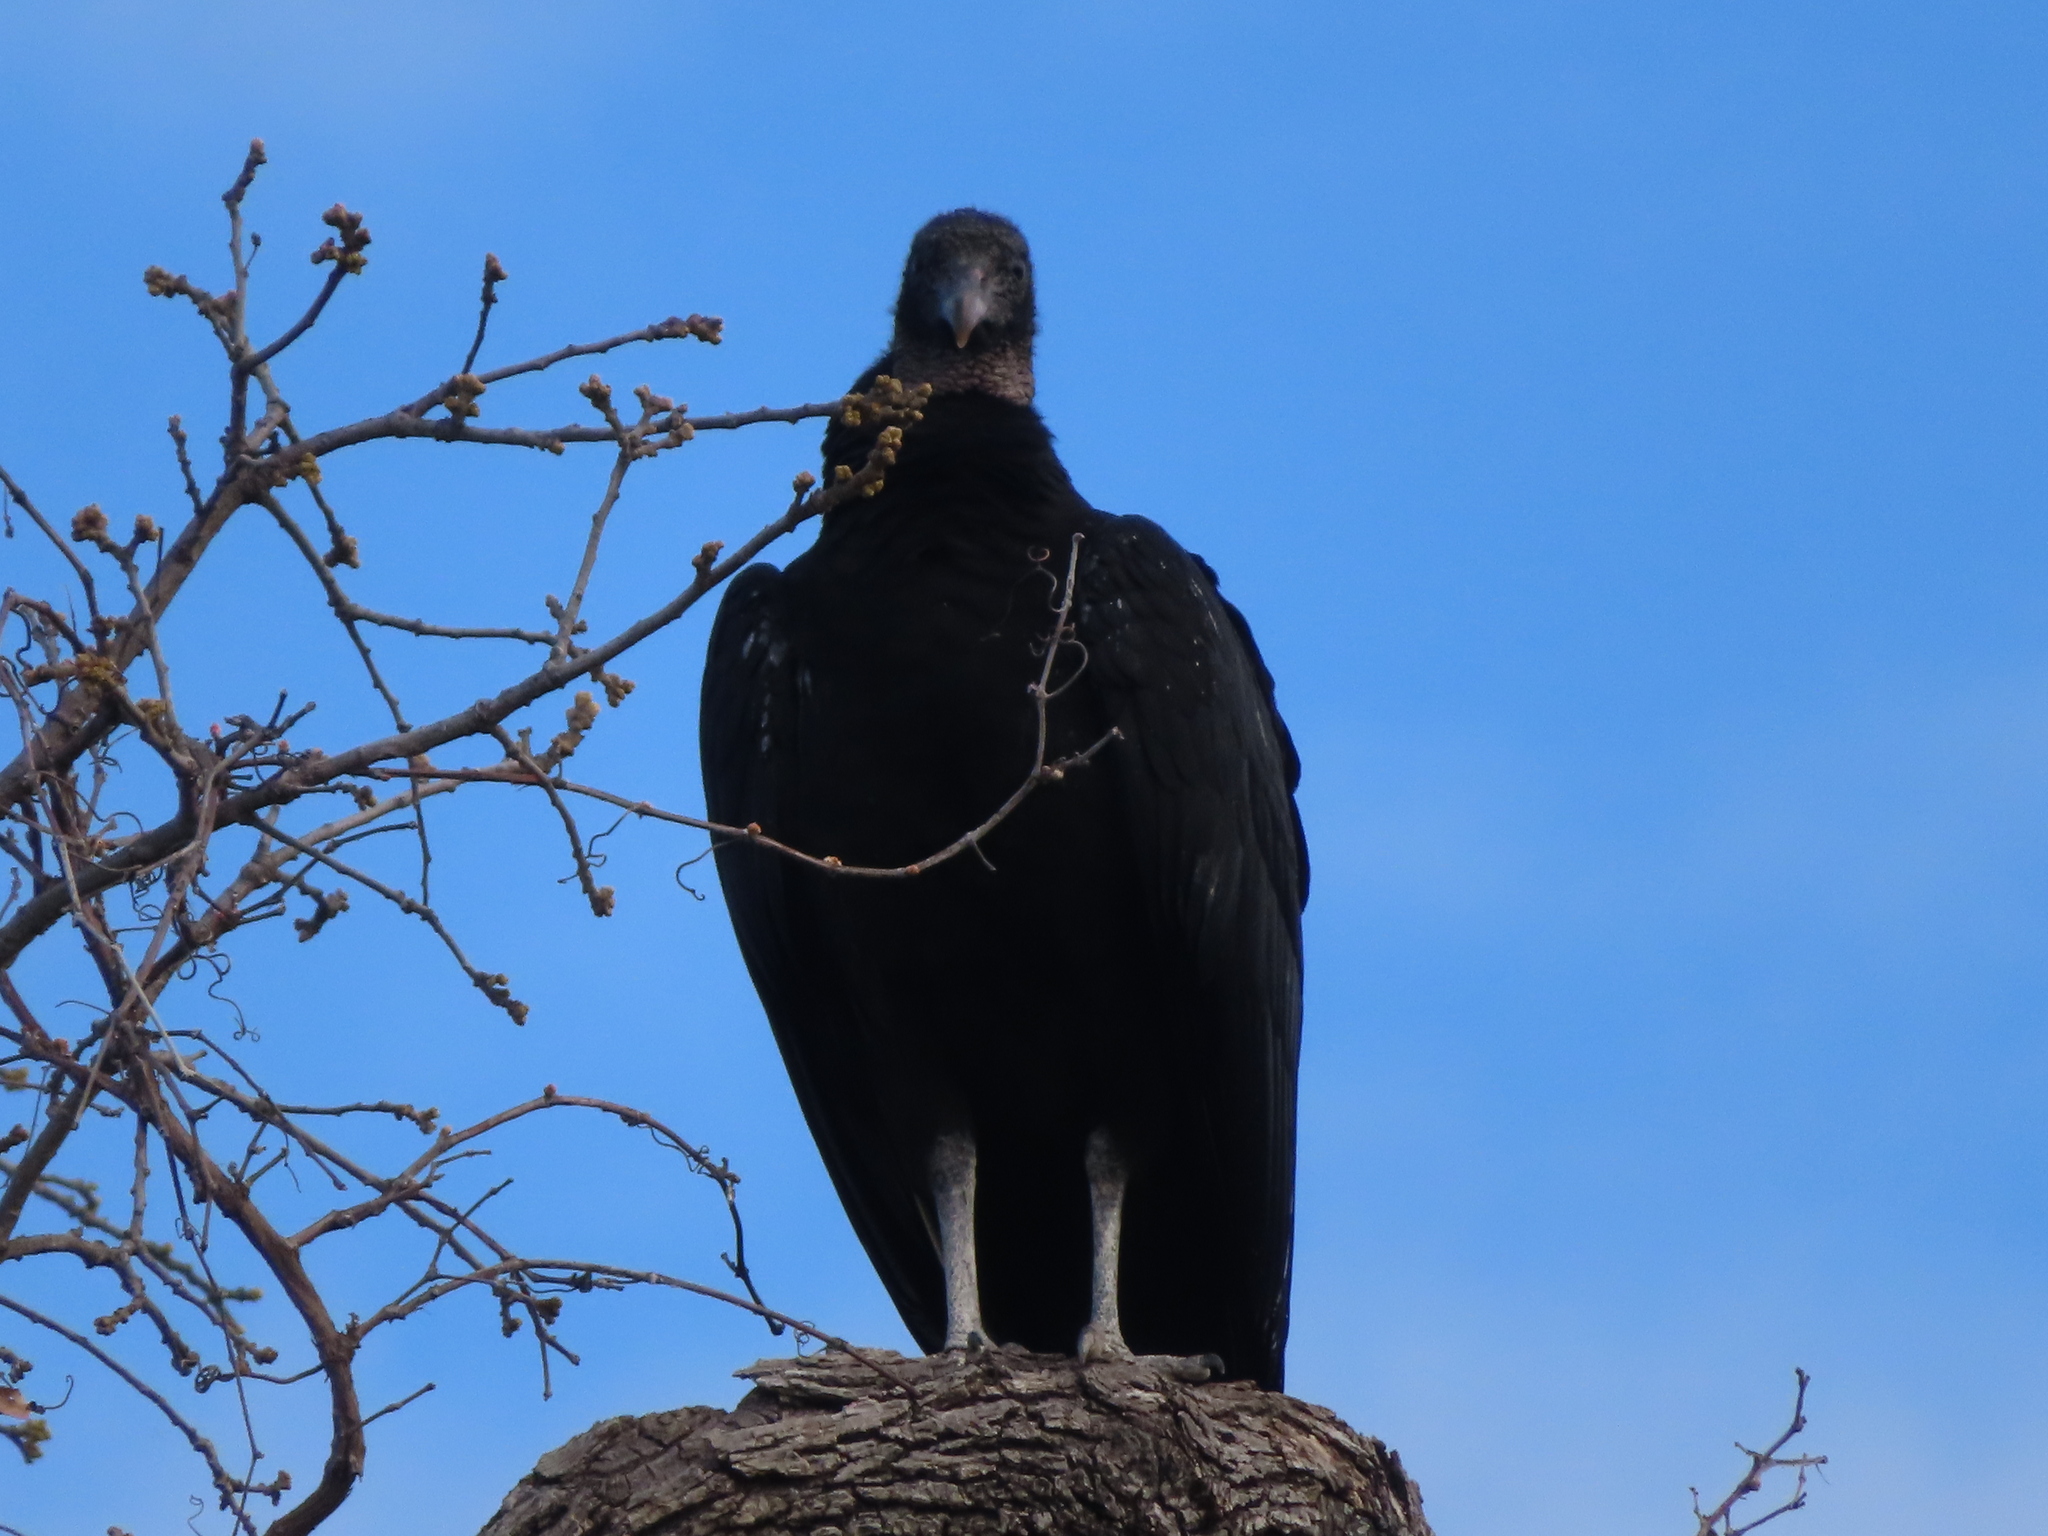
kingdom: Animalia
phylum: Chordata
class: Aves
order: Accipitriformes
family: Cathartidae
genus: Coragyps
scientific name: Coragyps atratus
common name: Black vulture
